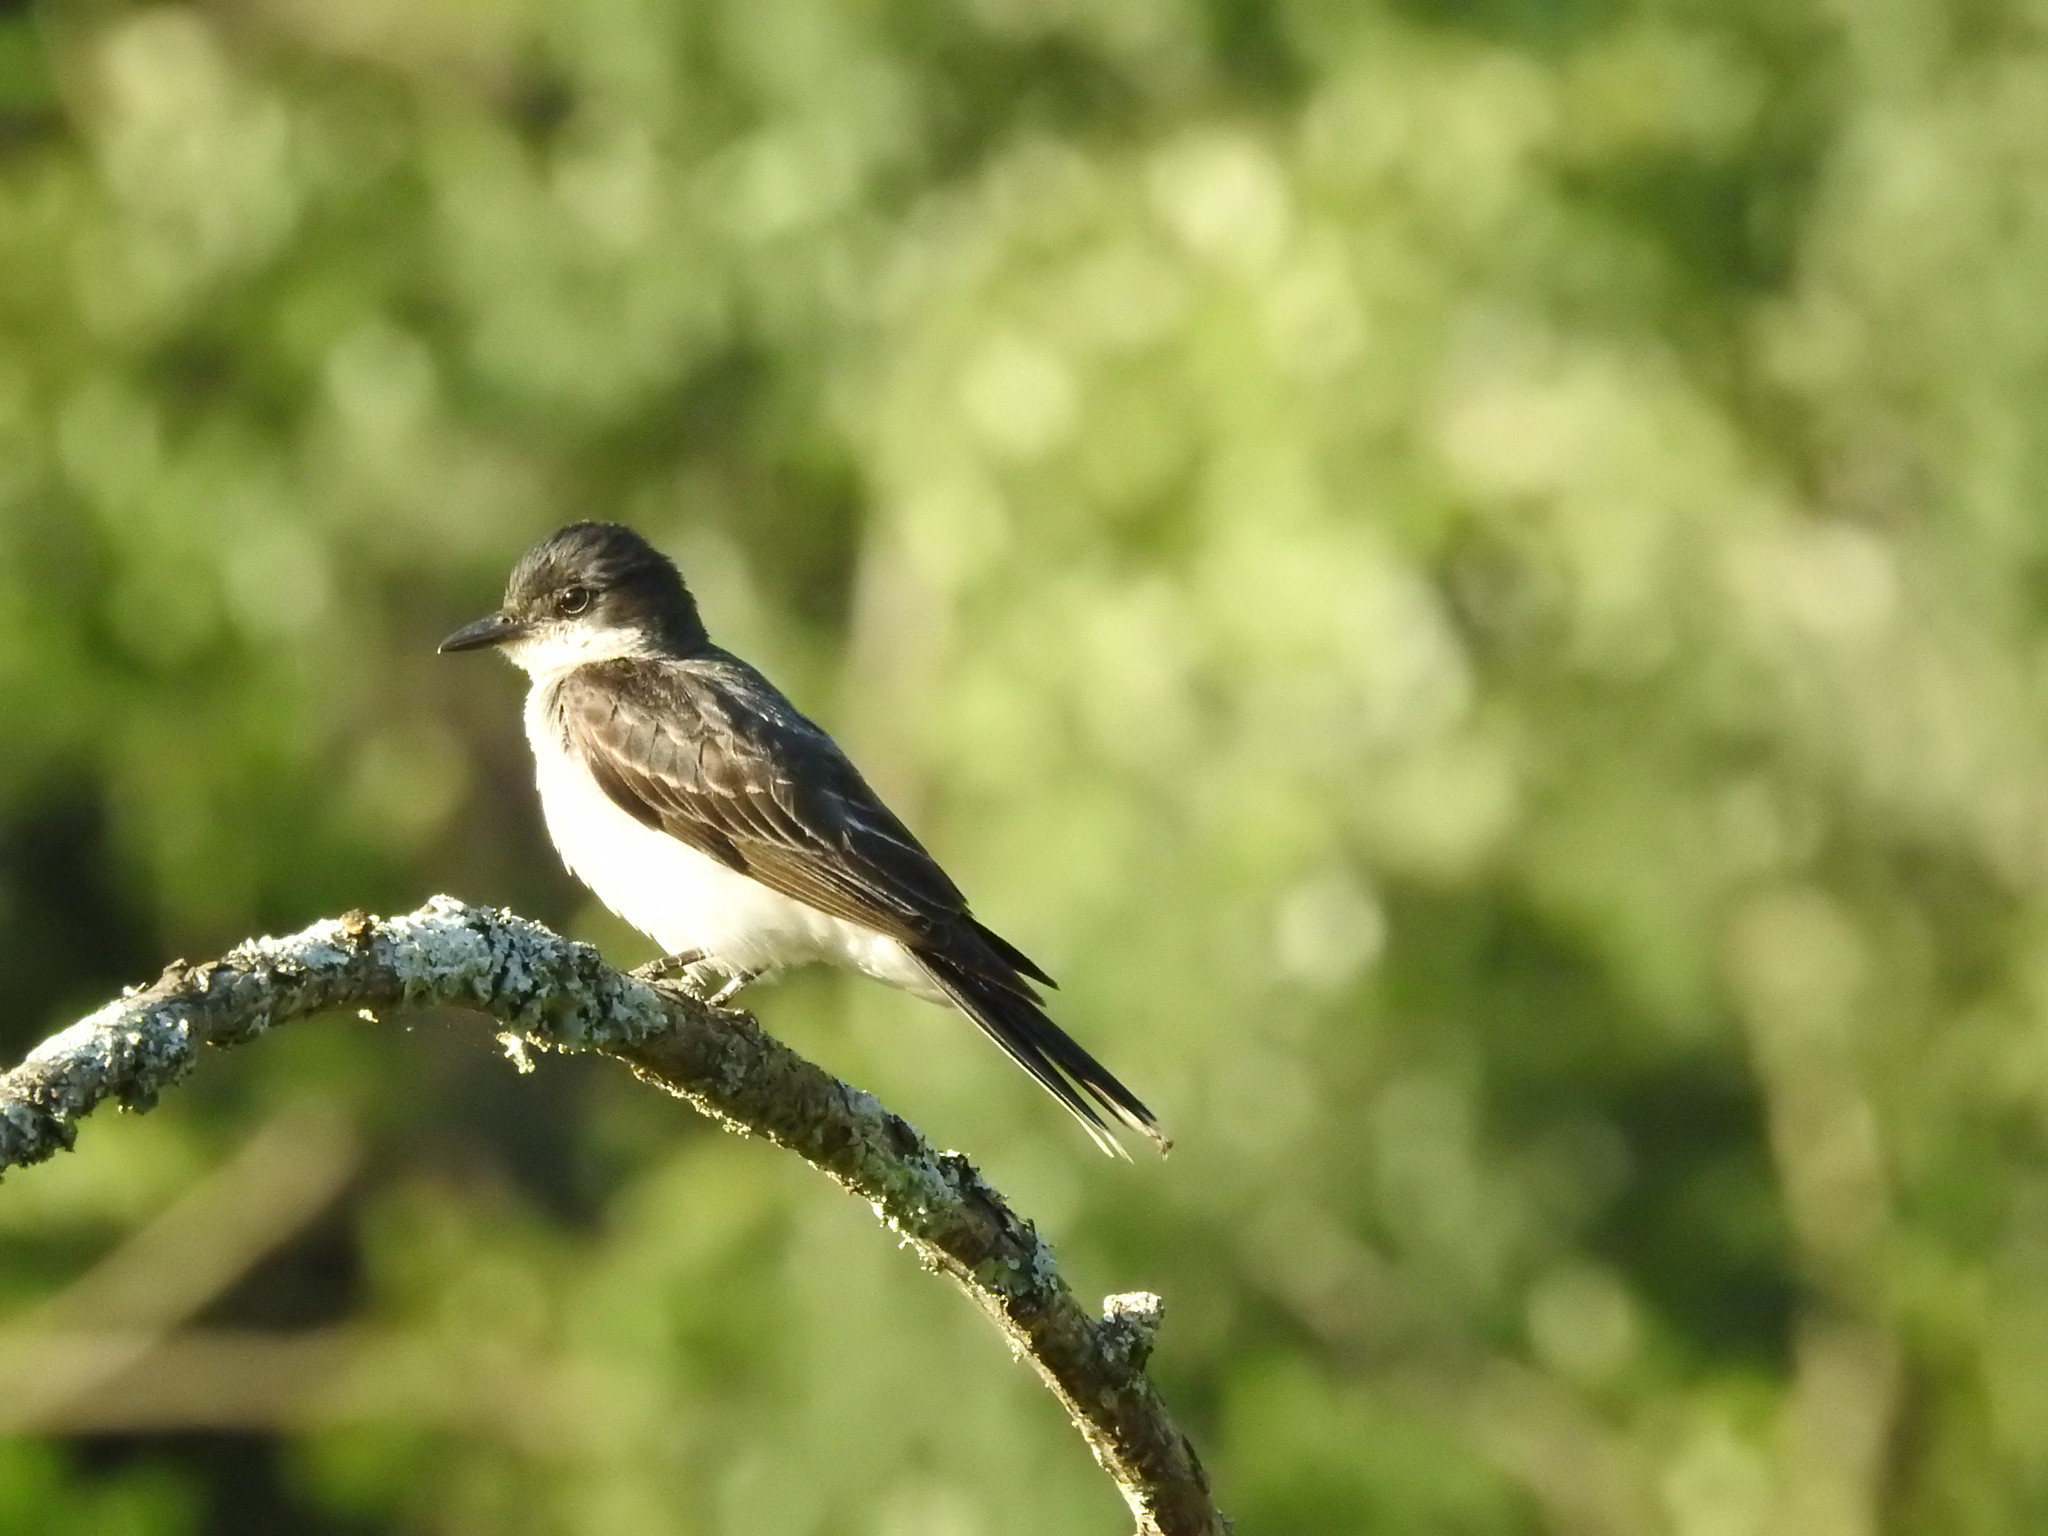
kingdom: Animalia
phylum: Chordata
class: Aves
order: Passeriformes
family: Tyrannidae
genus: Tyrannus
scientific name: Tyrannus tyrannus
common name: Eastern kingbird
